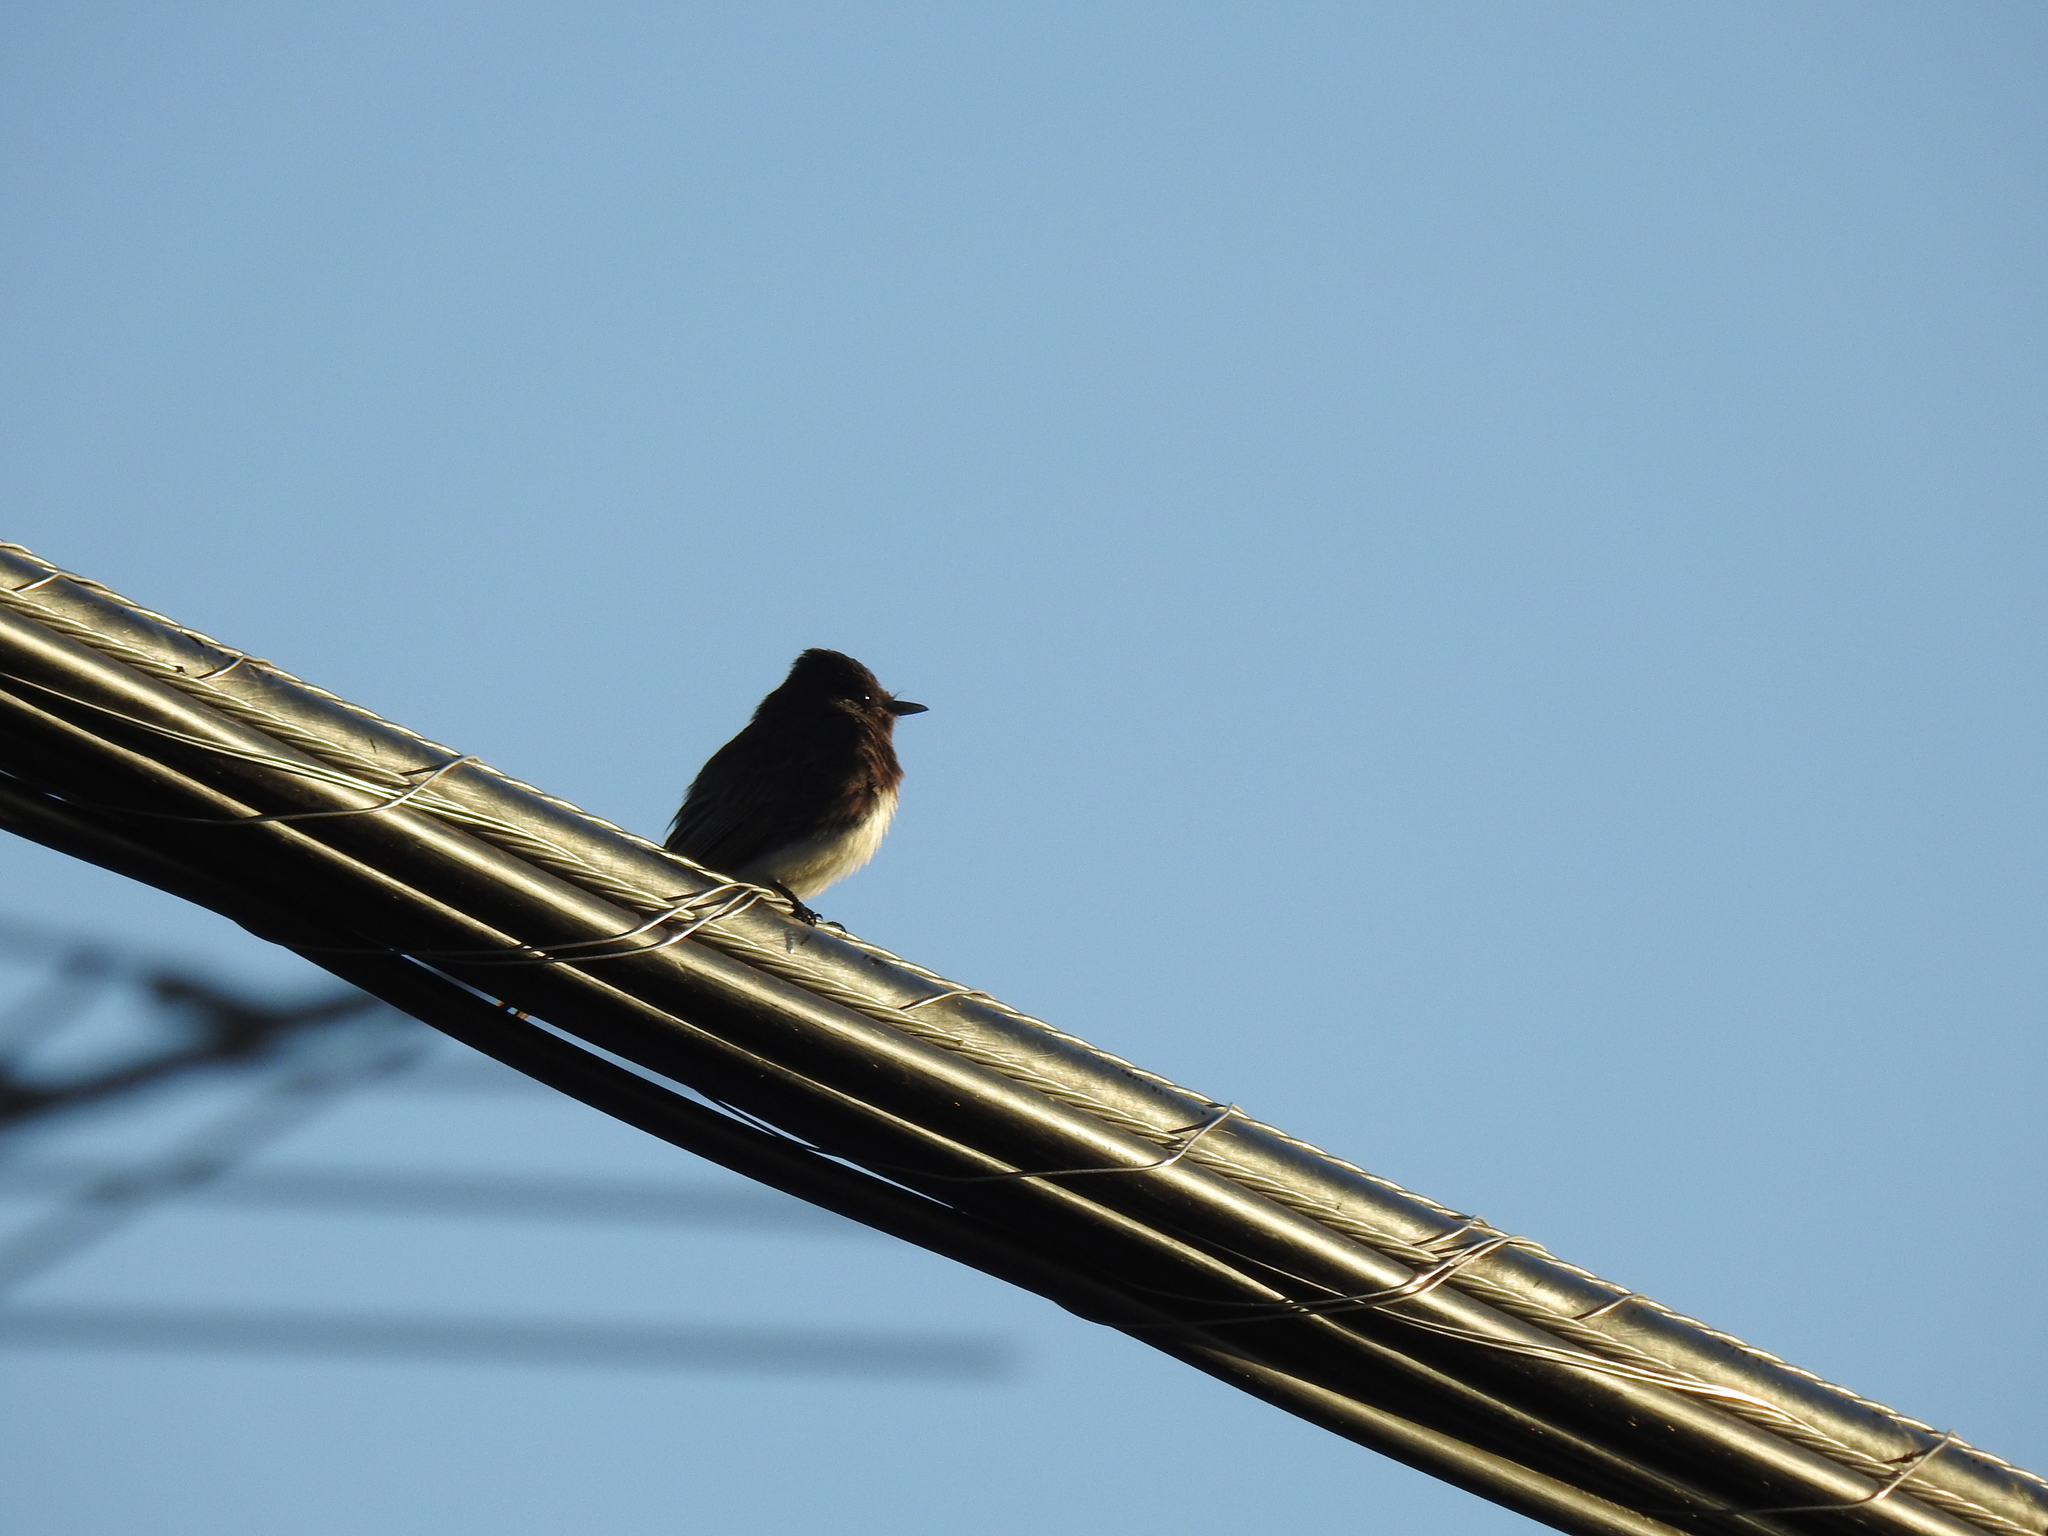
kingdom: Animalia
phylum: Chordata
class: Aves
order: Passeriformes
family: Tyrannidae
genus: Sayornis
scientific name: Sayornis nigricans
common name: Black phoebe
